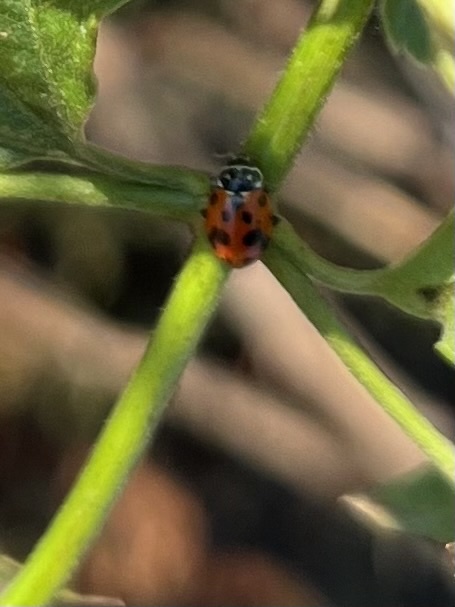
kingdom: Animalia
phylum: Arthropoda
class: Insecta
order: Coleoptera
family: Coccinellidae
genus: Hippodamia
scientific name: Hippodamia variegata
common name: Ladybird beetle
